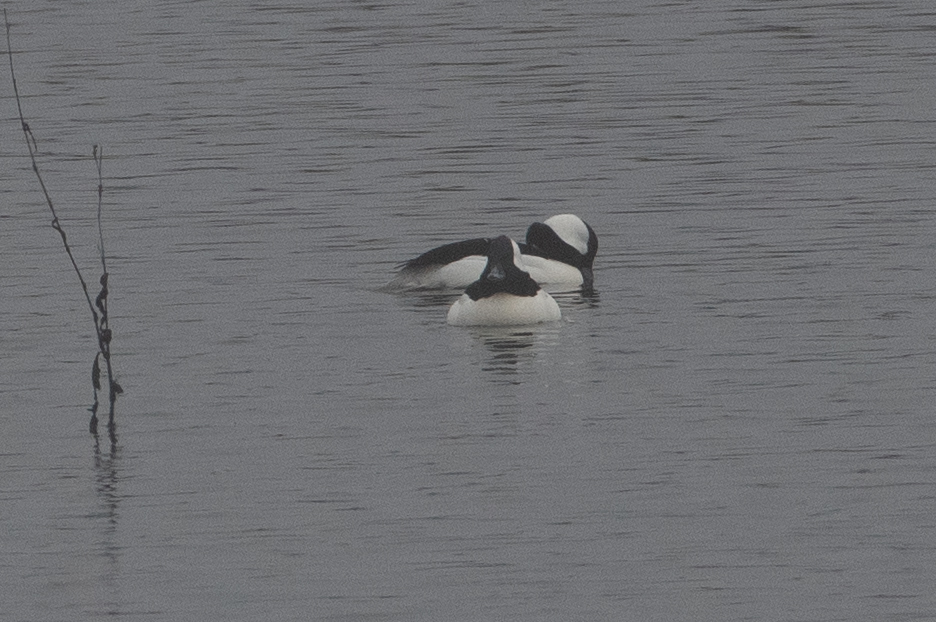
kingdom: Animalia
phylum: Chordata
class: Aves
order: Anseriformes
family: Anatidae
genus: Bucephala
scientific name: Bucephala albeola
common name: Bufflehead
